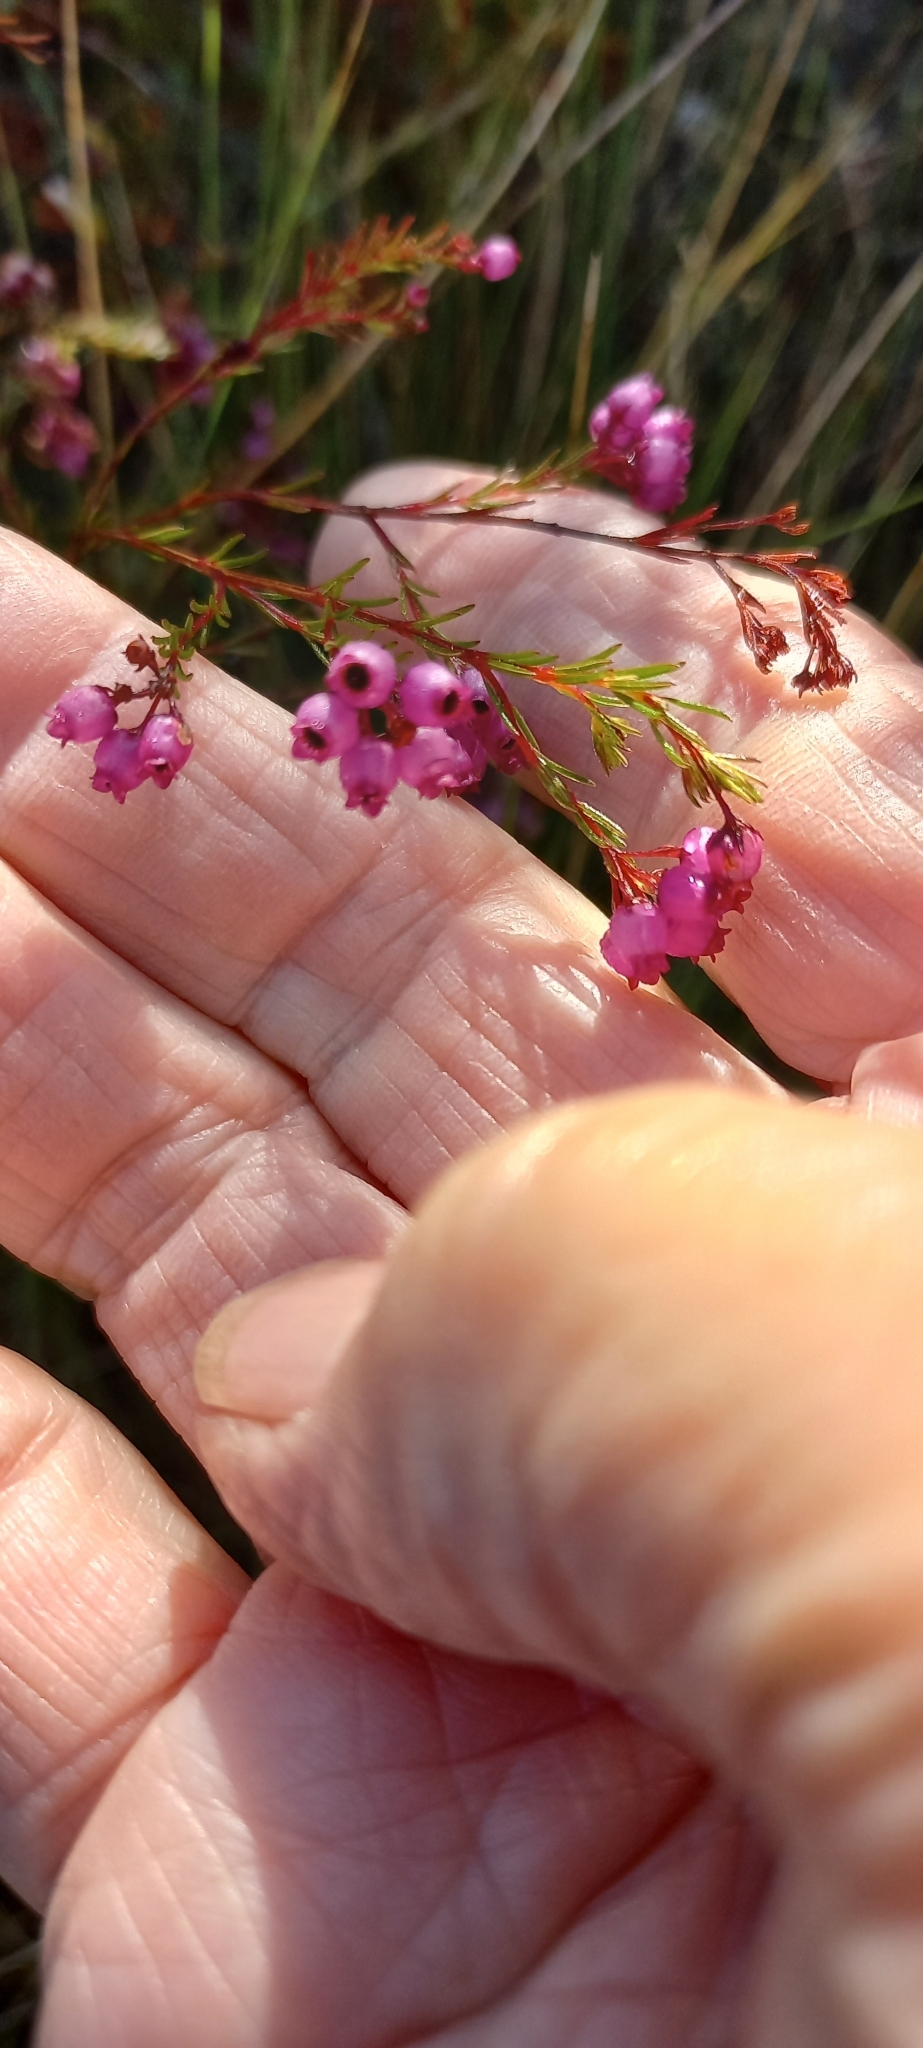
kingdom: Plantae
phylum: Tracheophyta
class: Magnoliopsida
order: Ericales
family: Ericaceae
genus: Erica
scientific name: Erica multumbellifera
